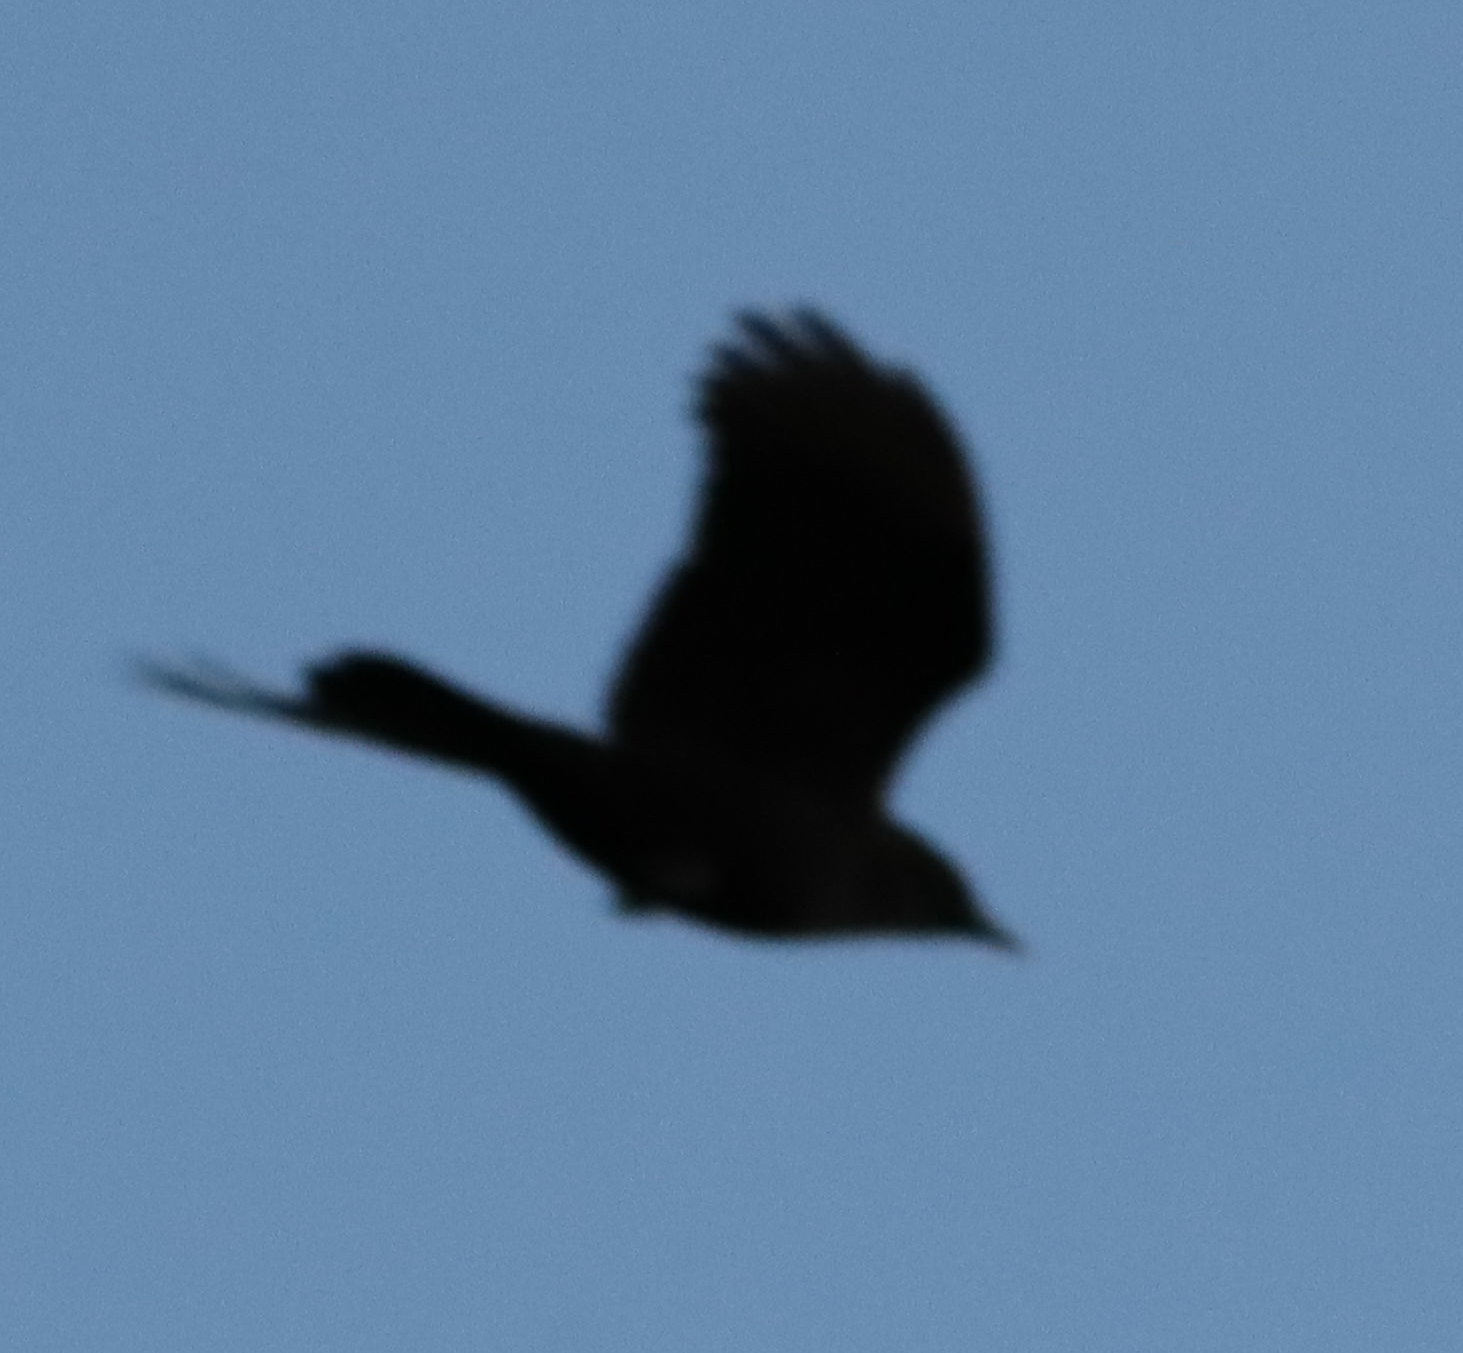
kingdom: Animalia
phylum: Chordata
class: Aves
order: Passeriformes
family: Corvidae
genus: Corvus
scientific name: Corvus brachyrhynchos
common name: American crow
